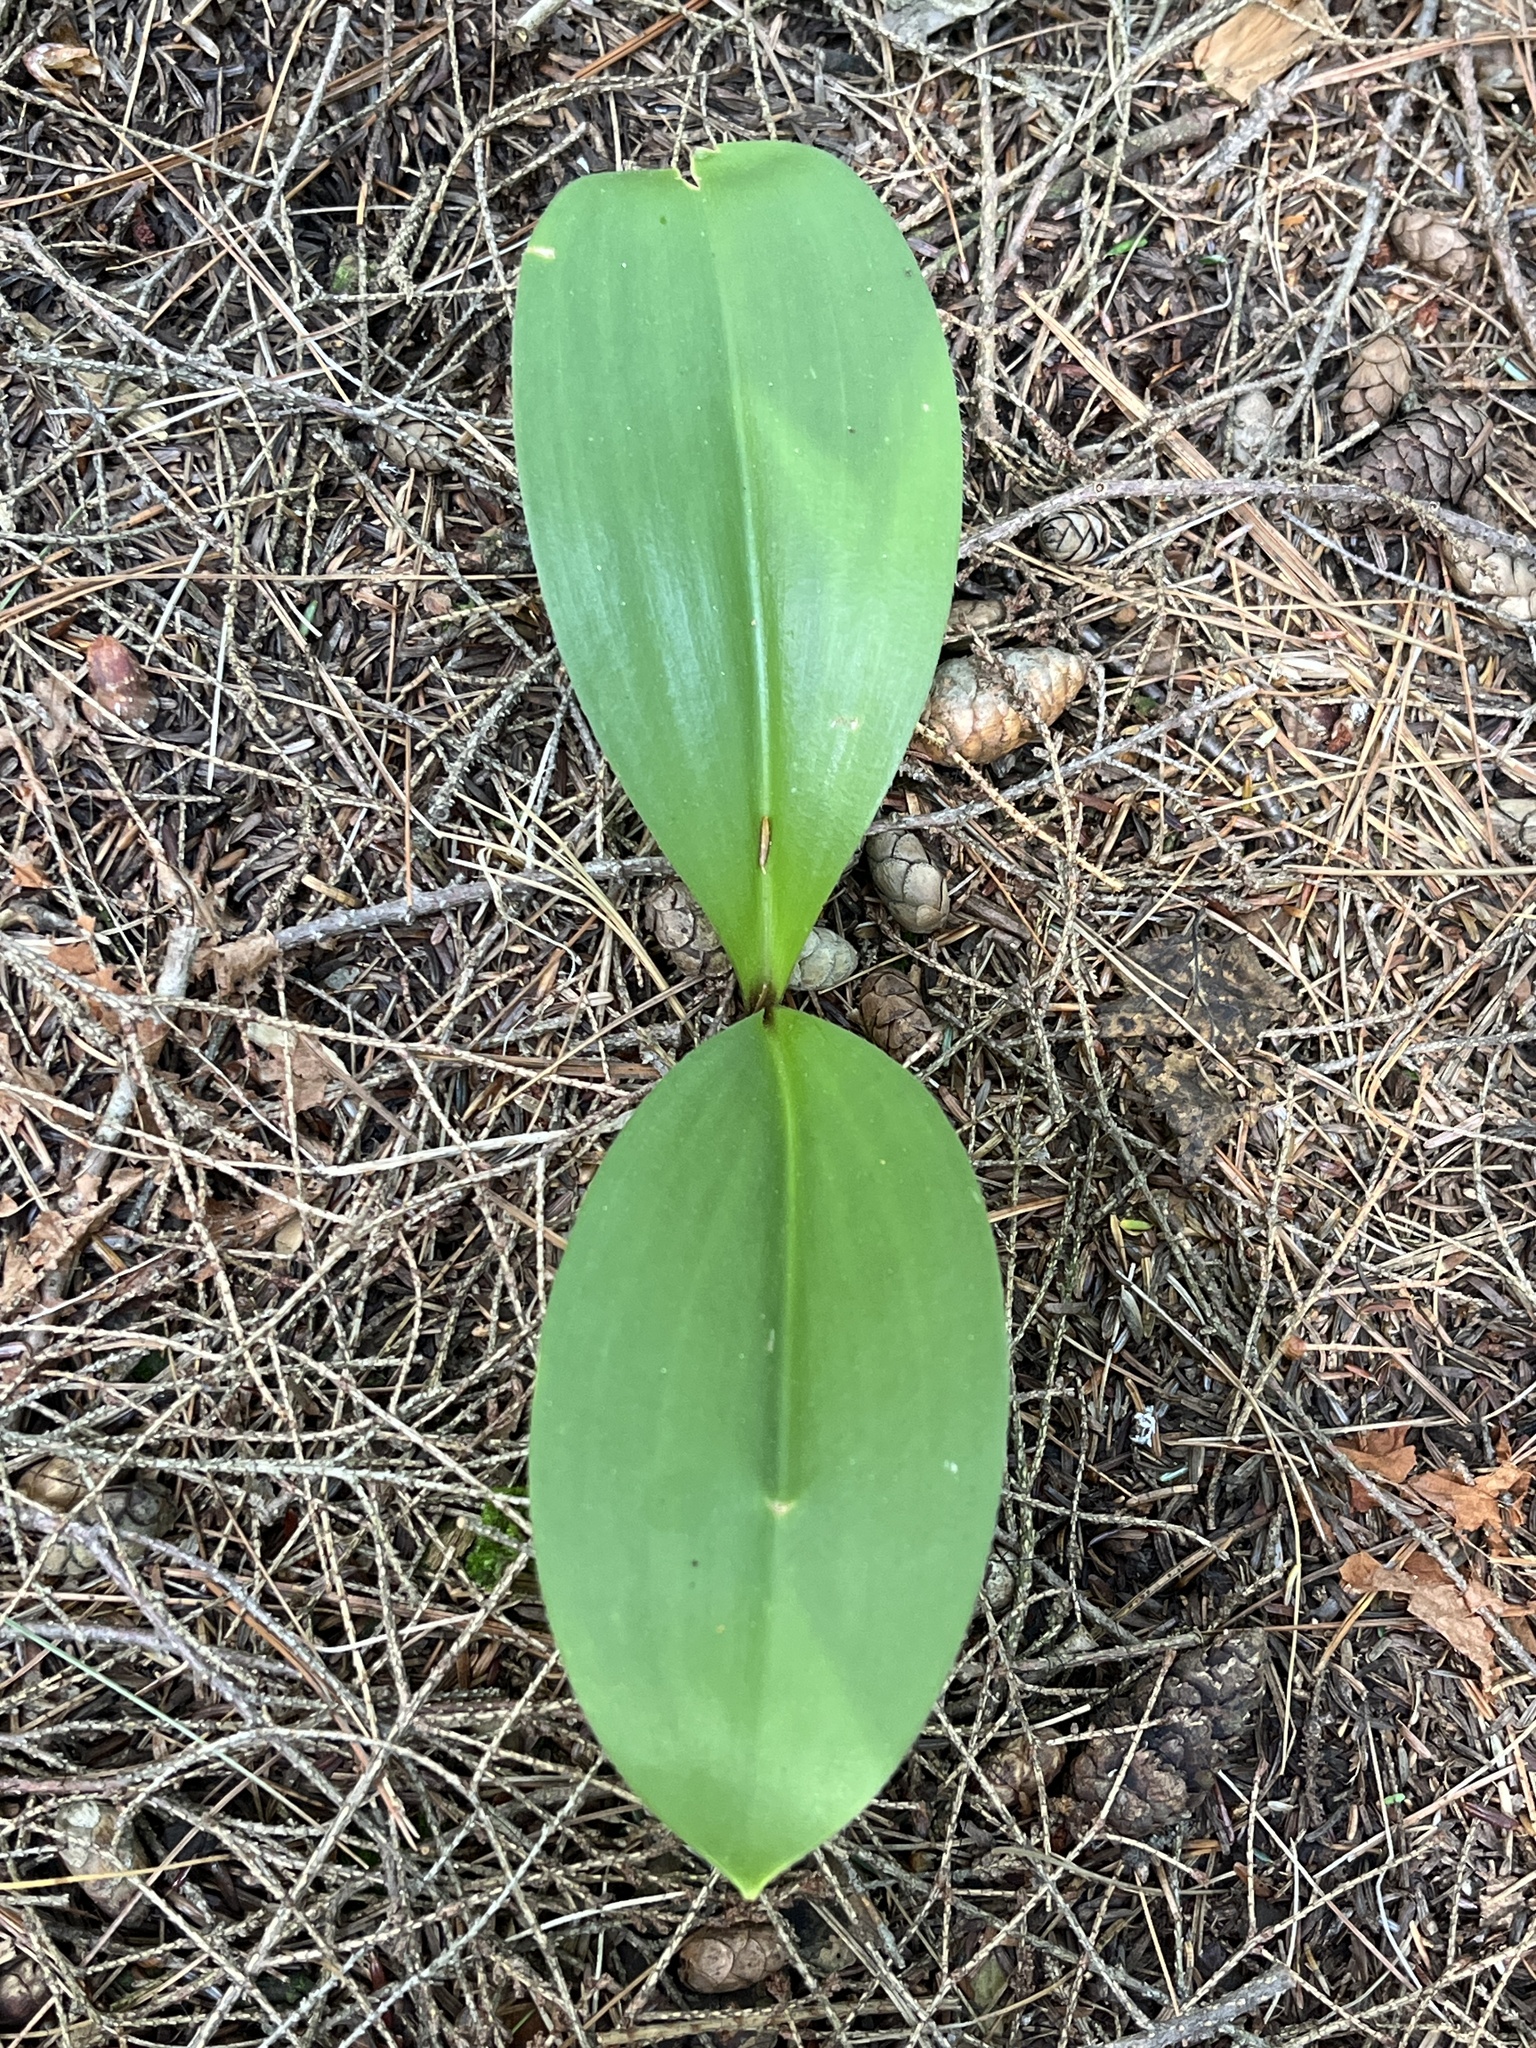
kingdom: Plantae
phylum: Tracheophyta
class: Liliopsida
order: Liliales
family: Liliaceae
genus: Clintonia
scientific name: Clintonia borealis
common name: Yellow clintonia
